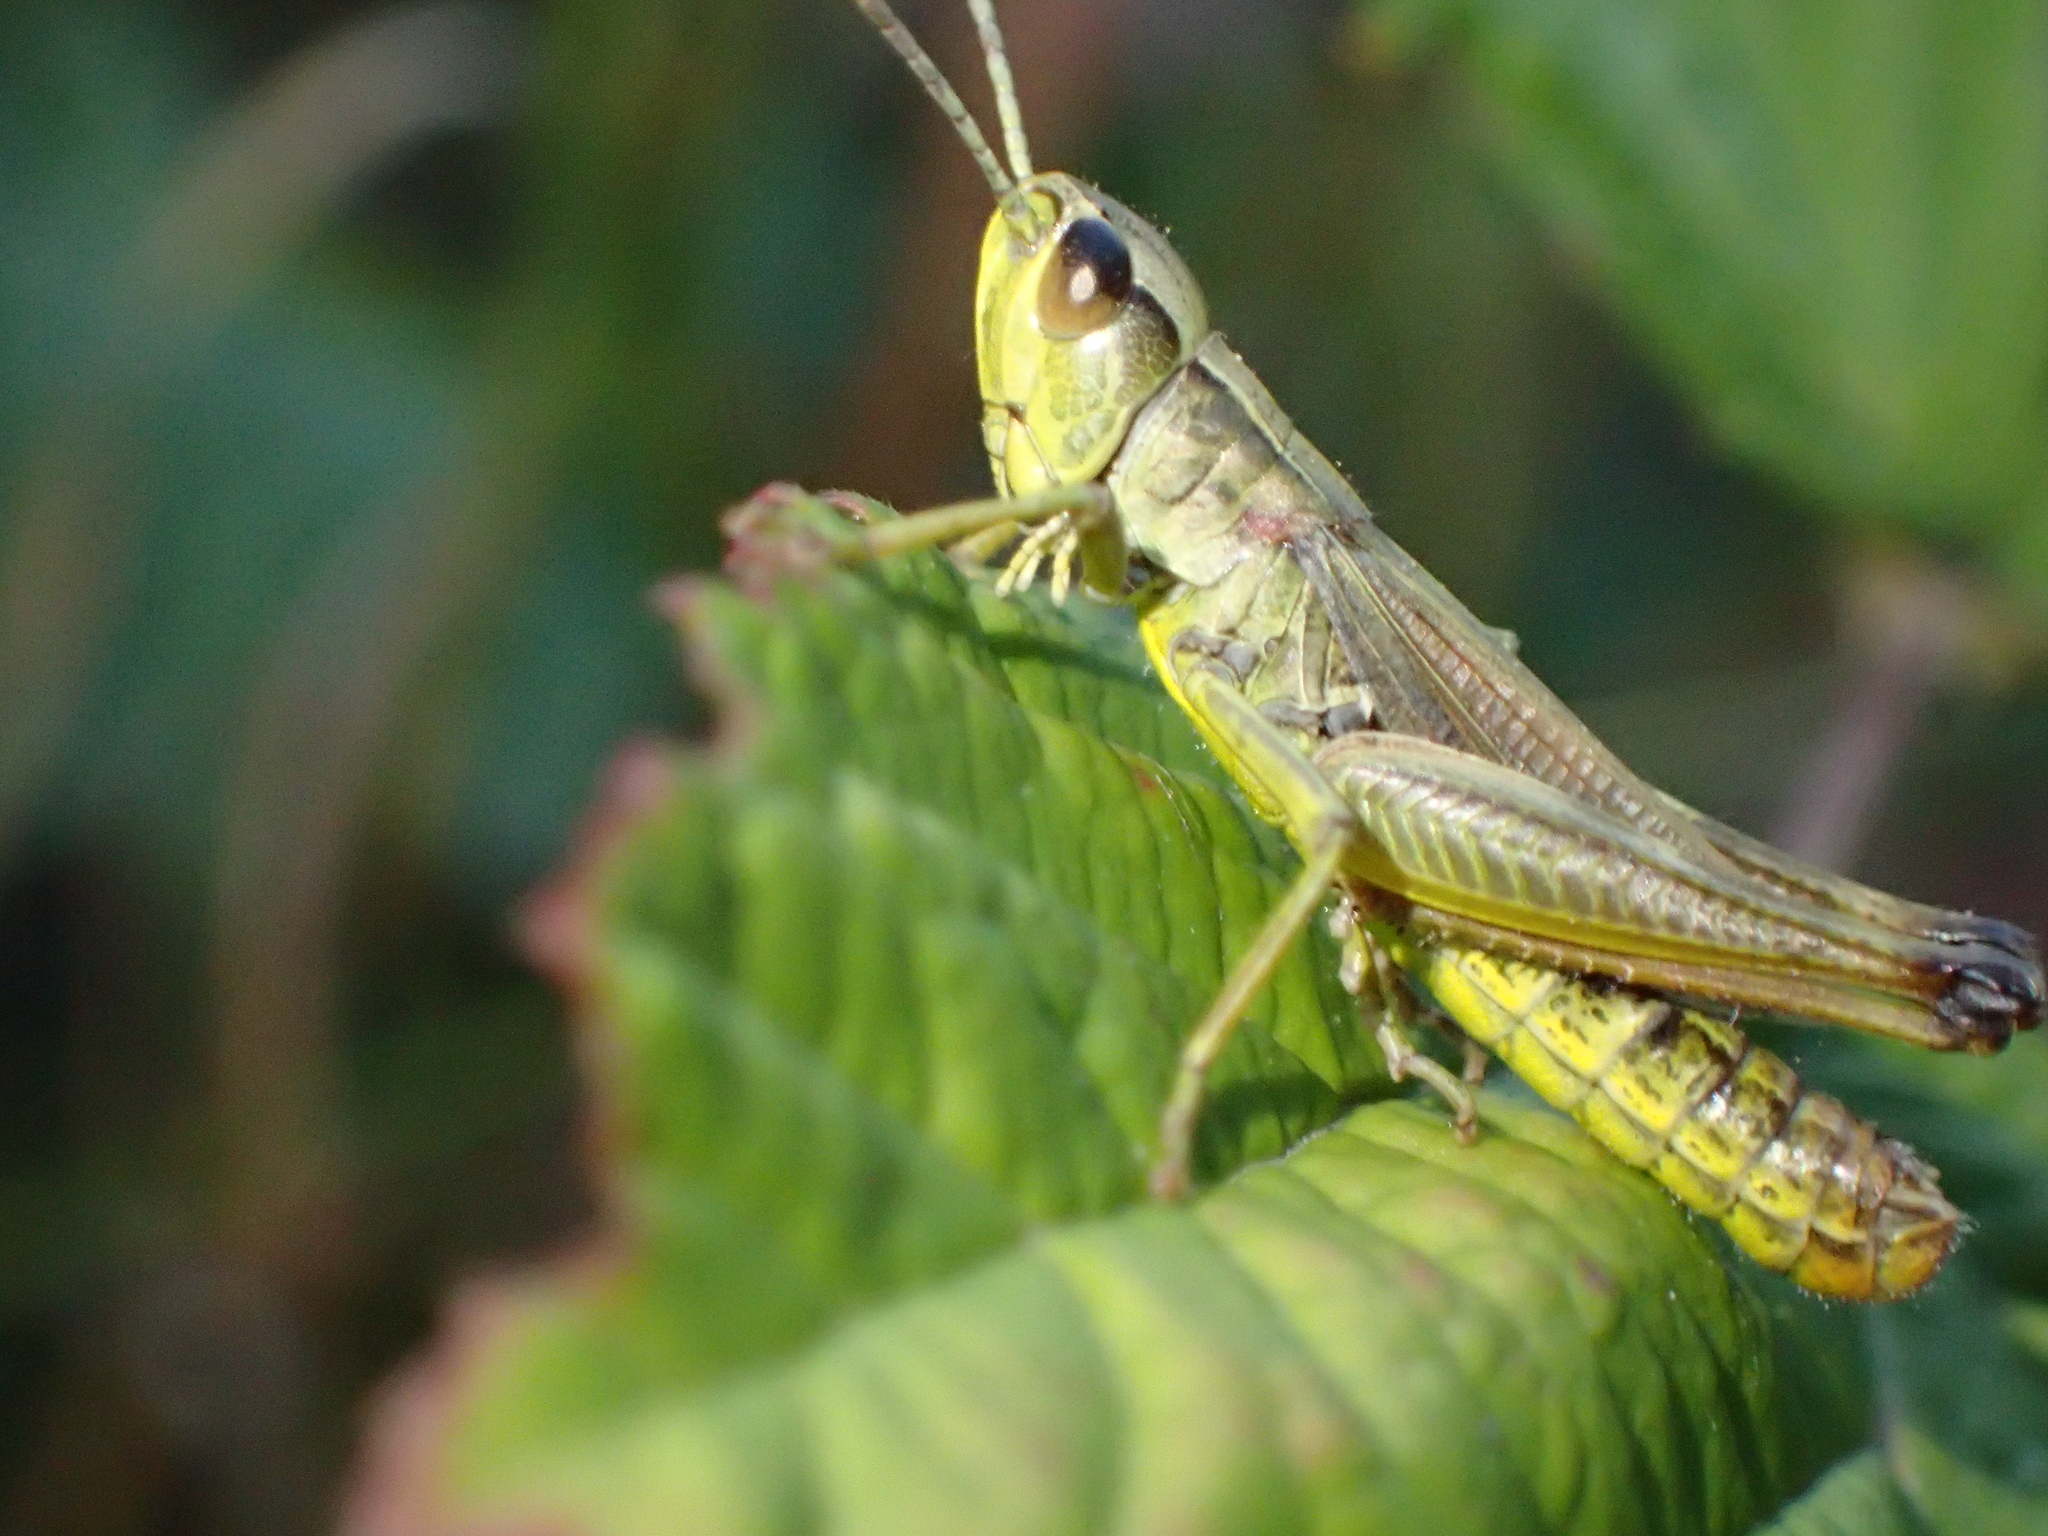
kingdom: Animalia
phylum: Arthropoda
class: Insecta
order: Orthoptera
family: Acrididae
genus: Pseudochorthippus
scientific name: Pseudochorthippus parallelus
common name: Meadow grasshopper
